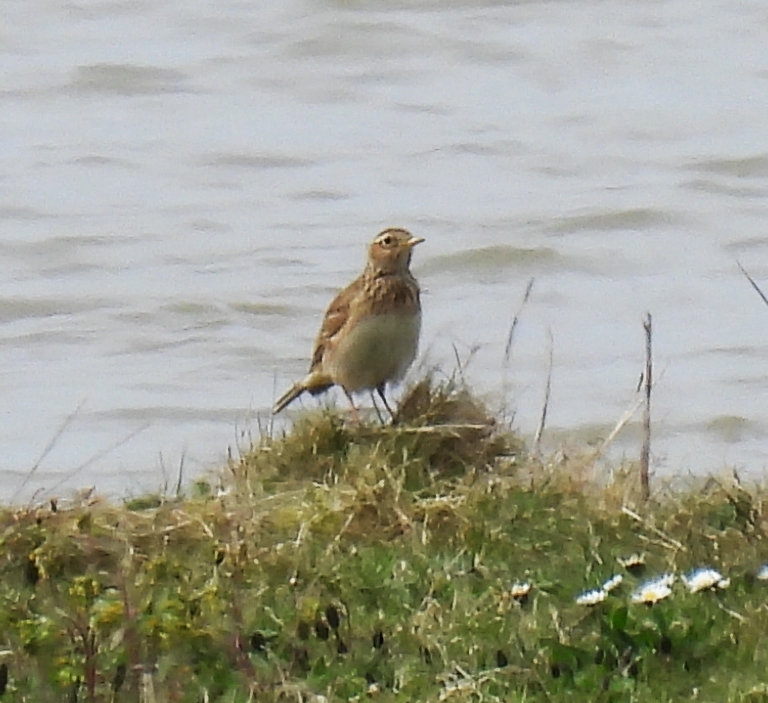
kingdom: Animalia
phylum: Chordata
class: Aves
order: Passeriformes
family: Alaudidae
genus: Alauda
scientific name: Alauda arvensis
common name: Eurasian skylark
